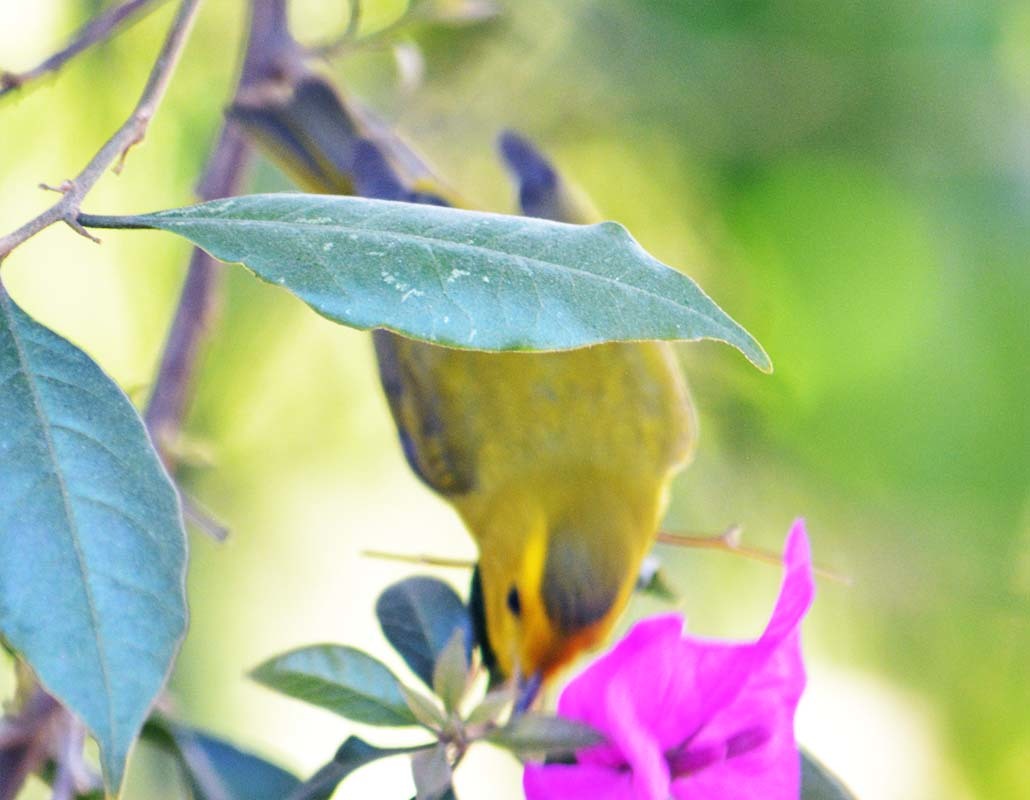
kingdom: Animalia
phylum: Chordata
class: Aves
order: Passeriformes
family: Parulidae
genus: Cardellina
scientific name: Cardellina pusilla
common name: Wilson's warbler
